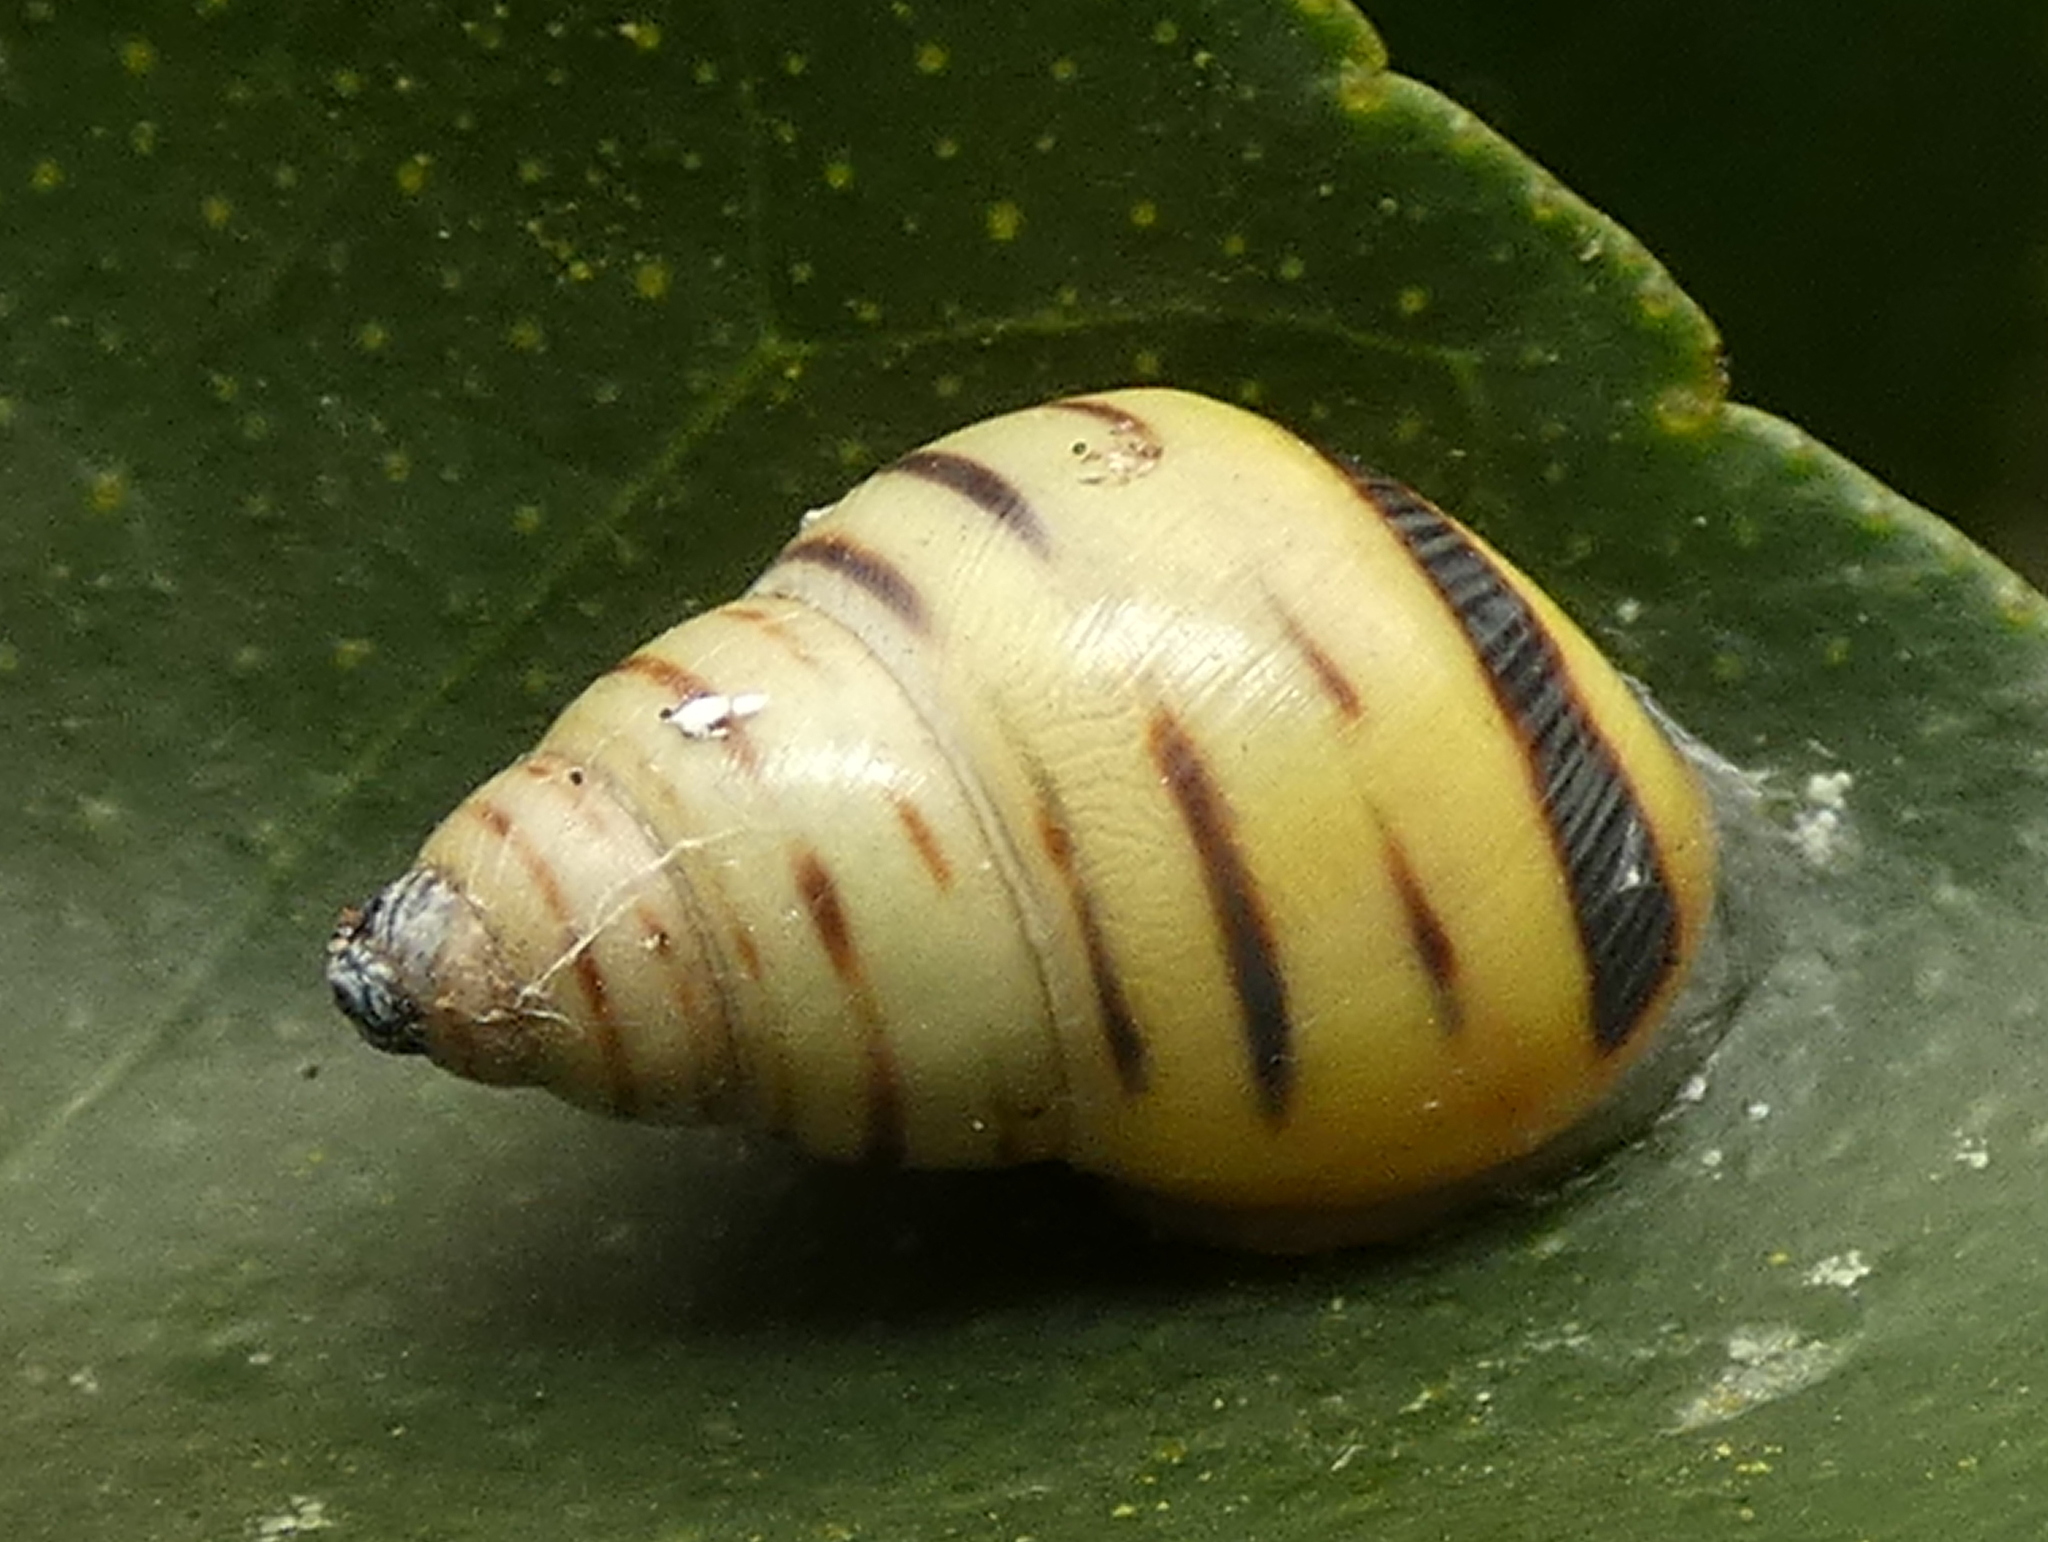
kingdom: Animalia
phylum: Mollusca
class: Gastropoda
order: Stylommatophora
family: Bulimulidae
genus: Drymaeus
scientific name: Drymaeus
